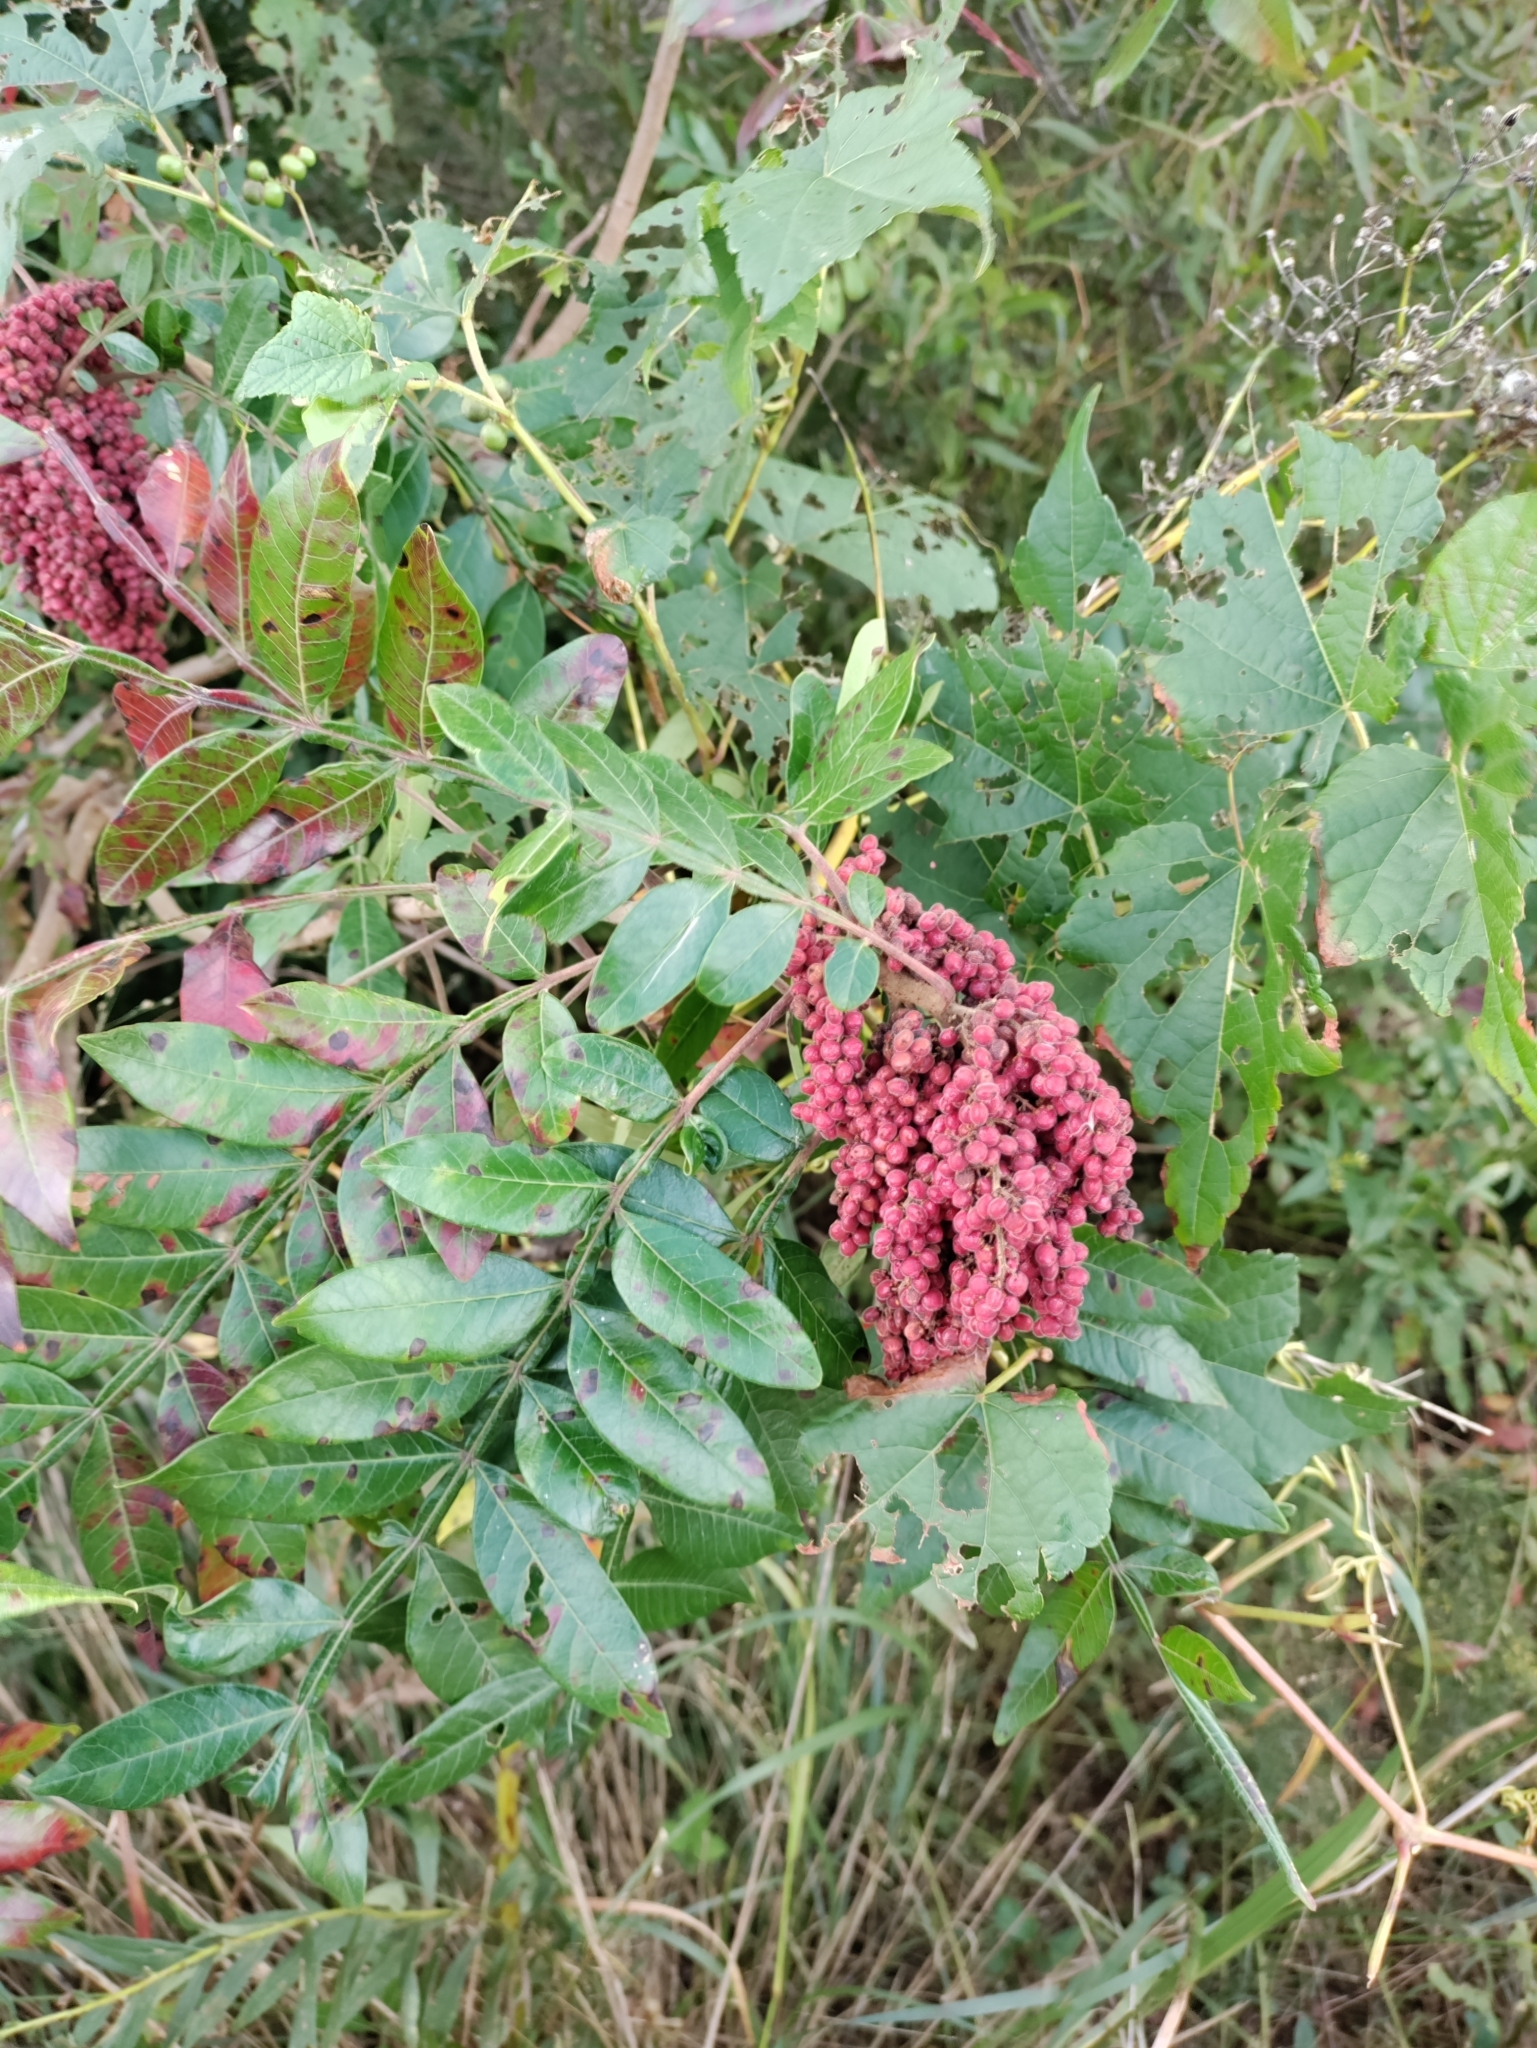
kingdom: Plantae
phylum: Tracheophyta
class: Magnoliopsida
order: Sapindales
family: Anacardiaceae
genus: Rhus
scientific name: Rhus copallina
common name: Shining sumac
